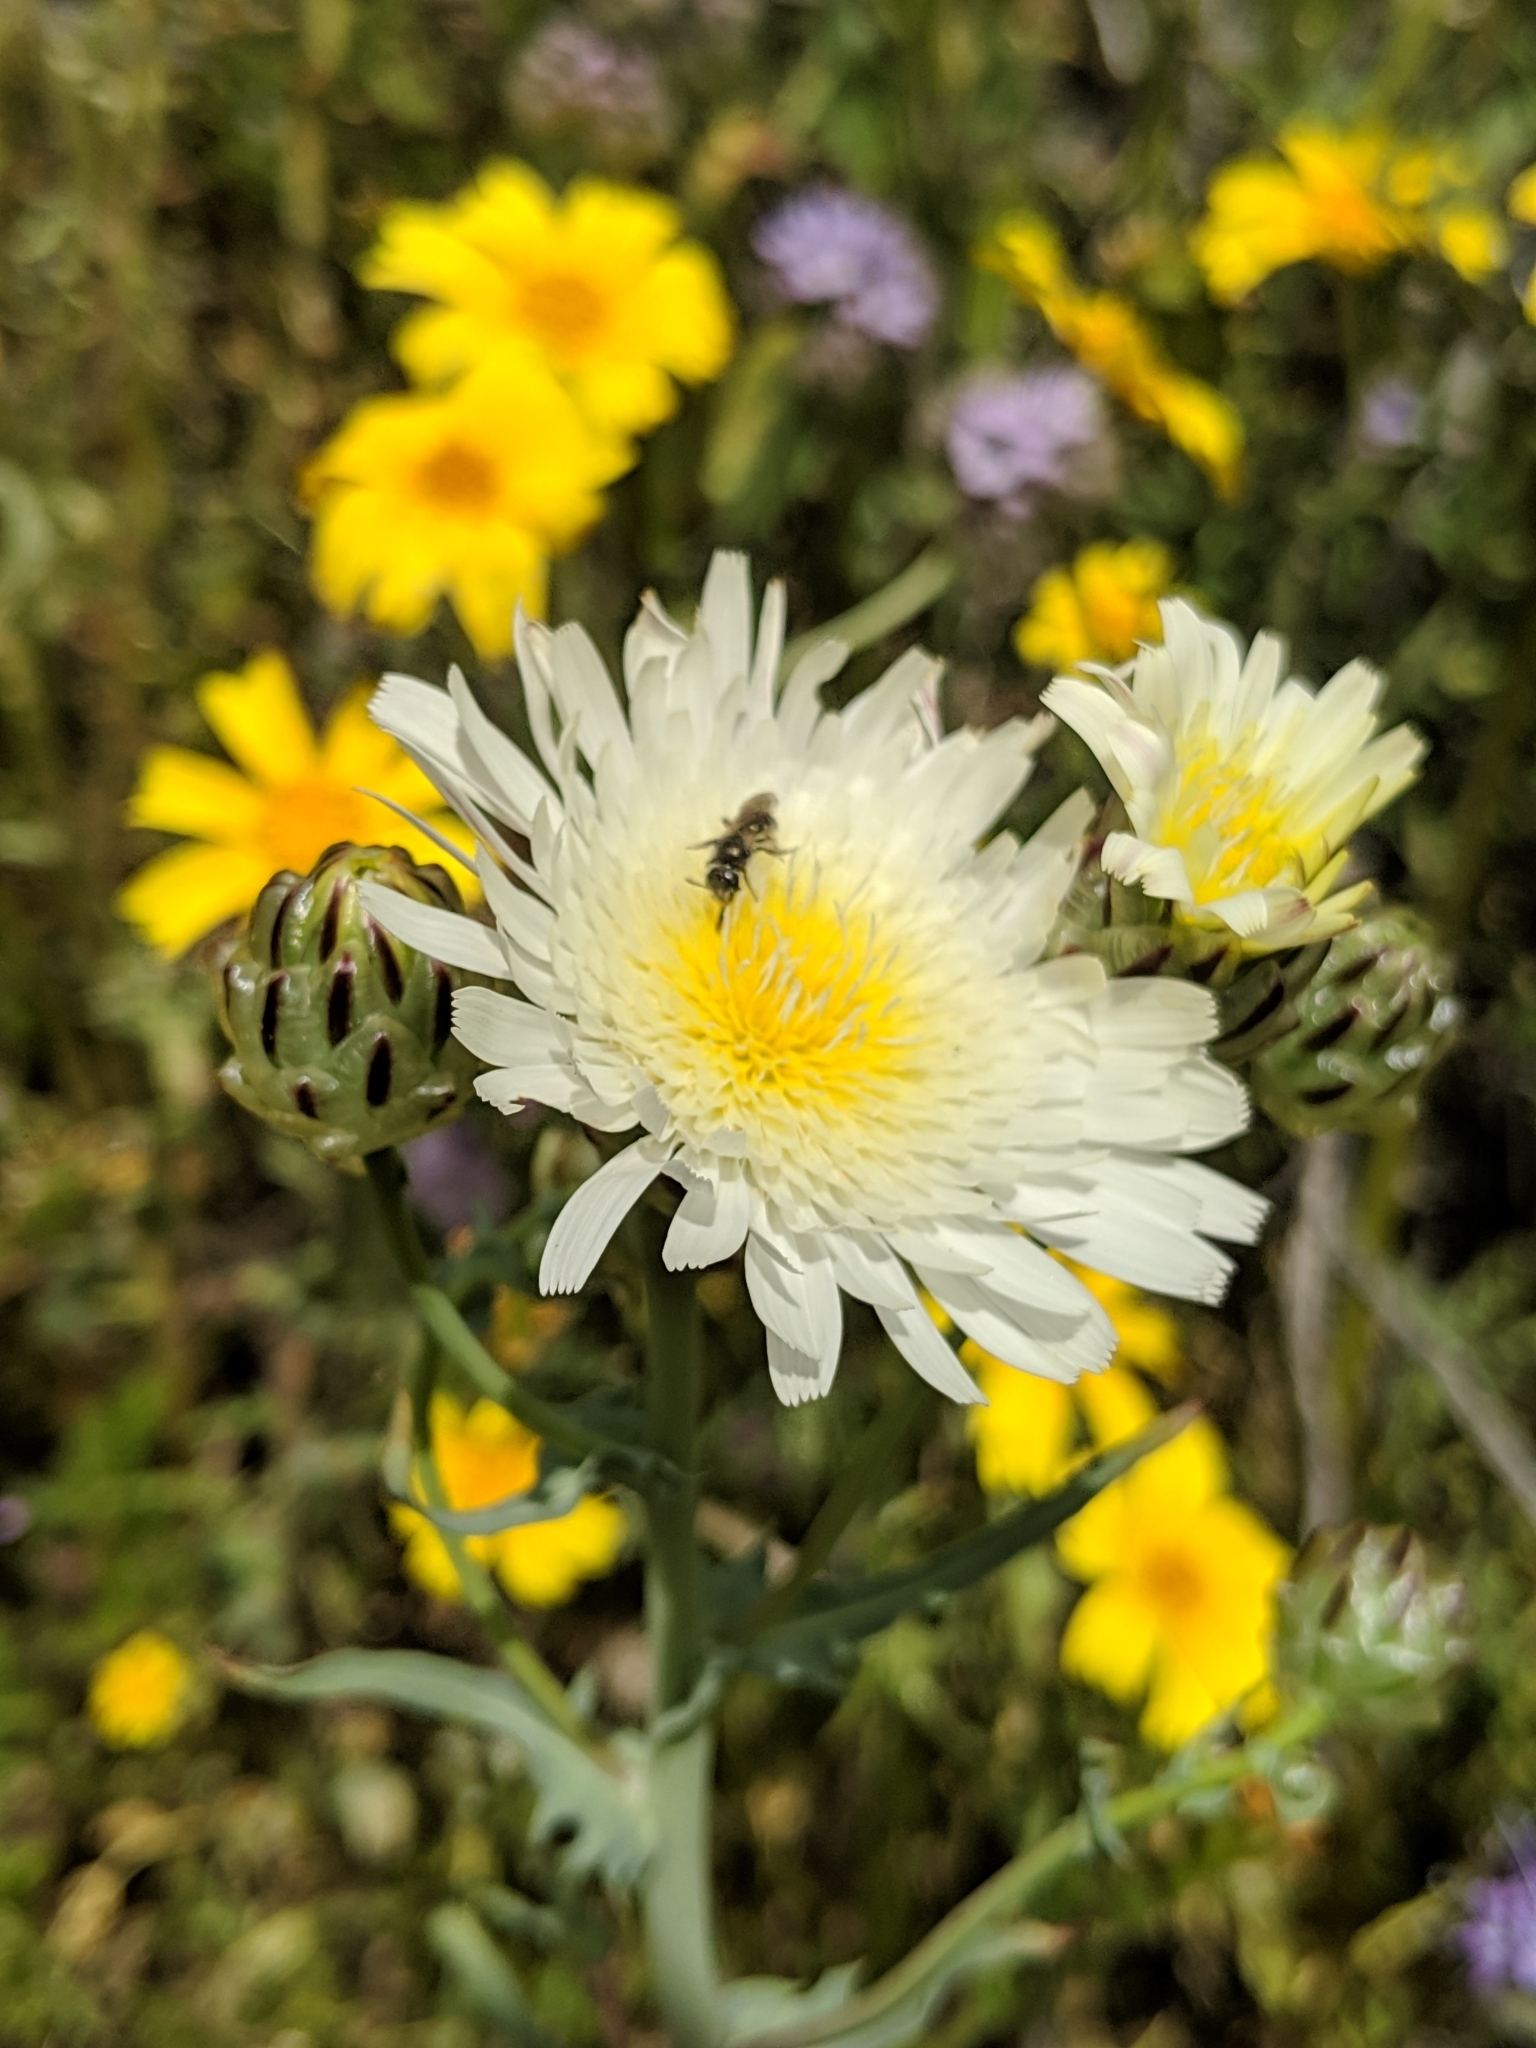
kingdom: Plantae
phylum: Tracheophyta
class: Magnoliopsida
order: Asterales
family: Asteraceae
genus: Malacothrix
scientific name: Malacothrix coulteri
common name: Snake's-head
